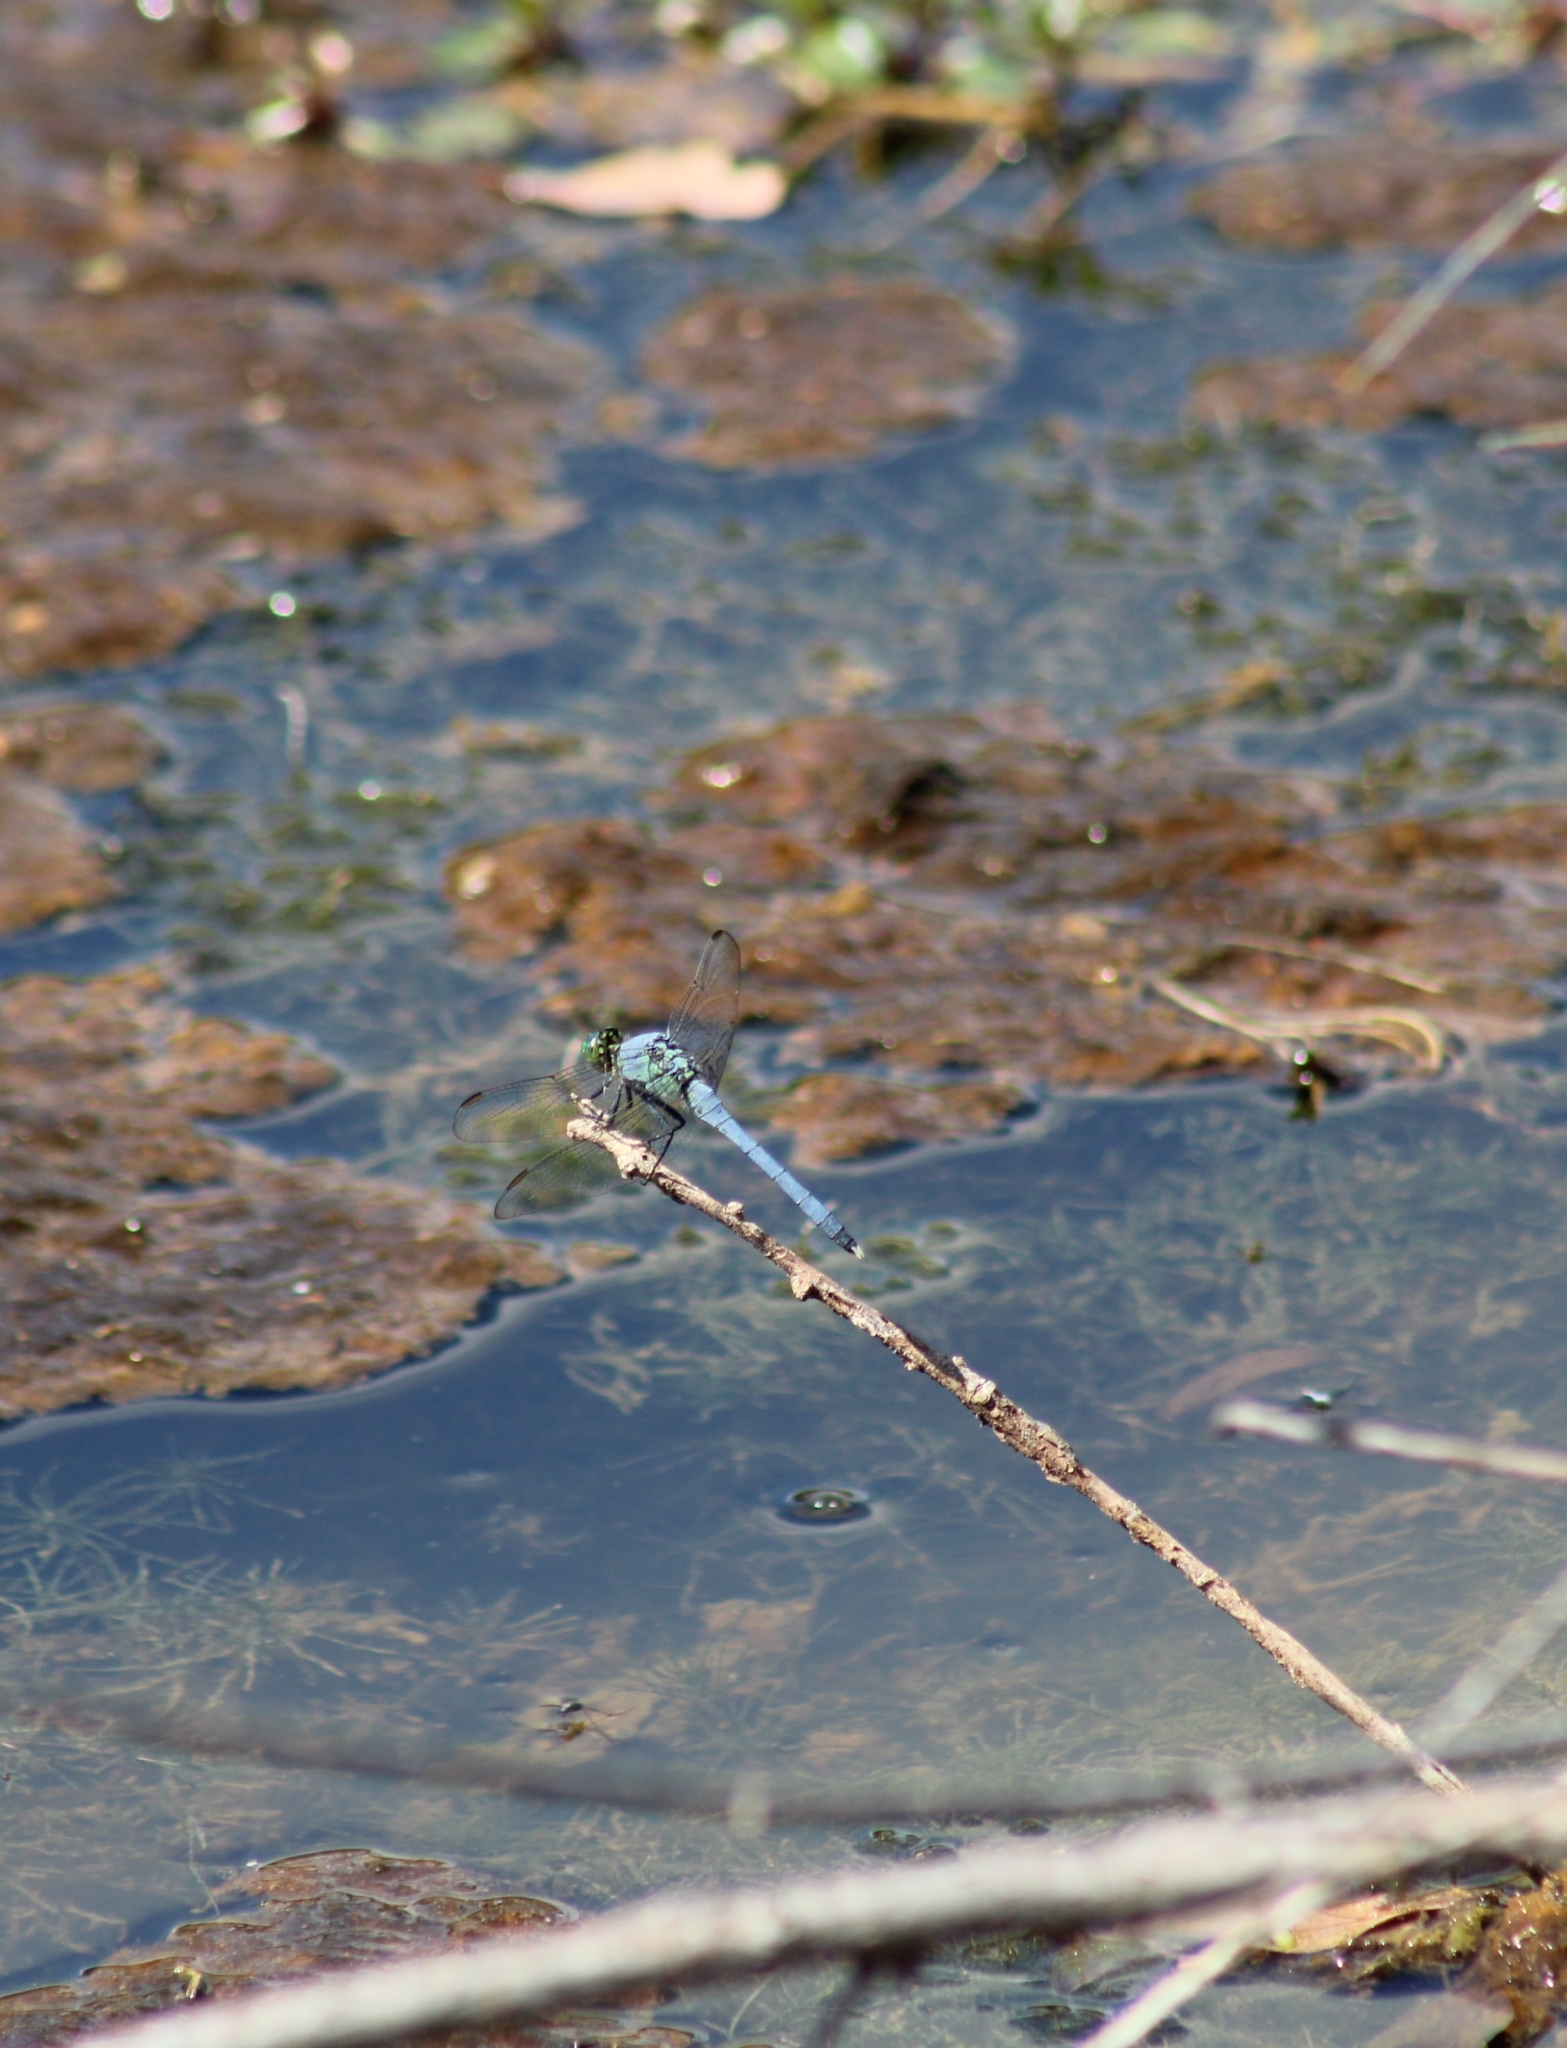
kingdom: Animalia
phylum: Arthropoda
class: Insecta
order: Odonata
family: Libellulidae
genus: Erythemis
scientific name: Erythemis simplicicollis
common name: Eastern pondhawk
